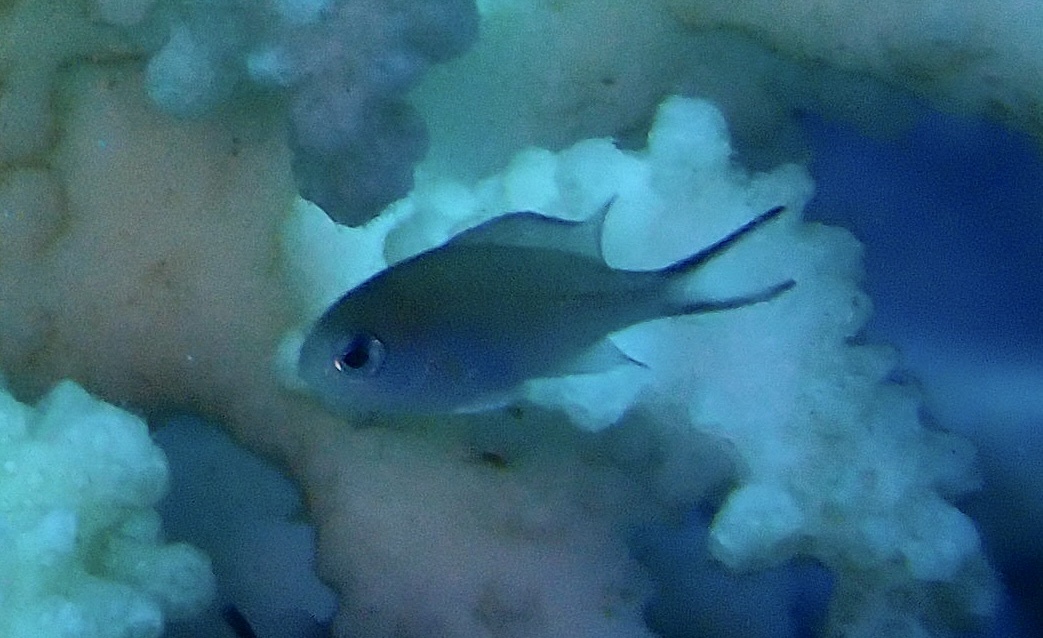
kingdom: Animalia
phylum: Chordata
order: Perciformes
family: Pomacentridae
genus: Chromis
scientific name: Chromis flavaxilla
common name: Arabian chromis
